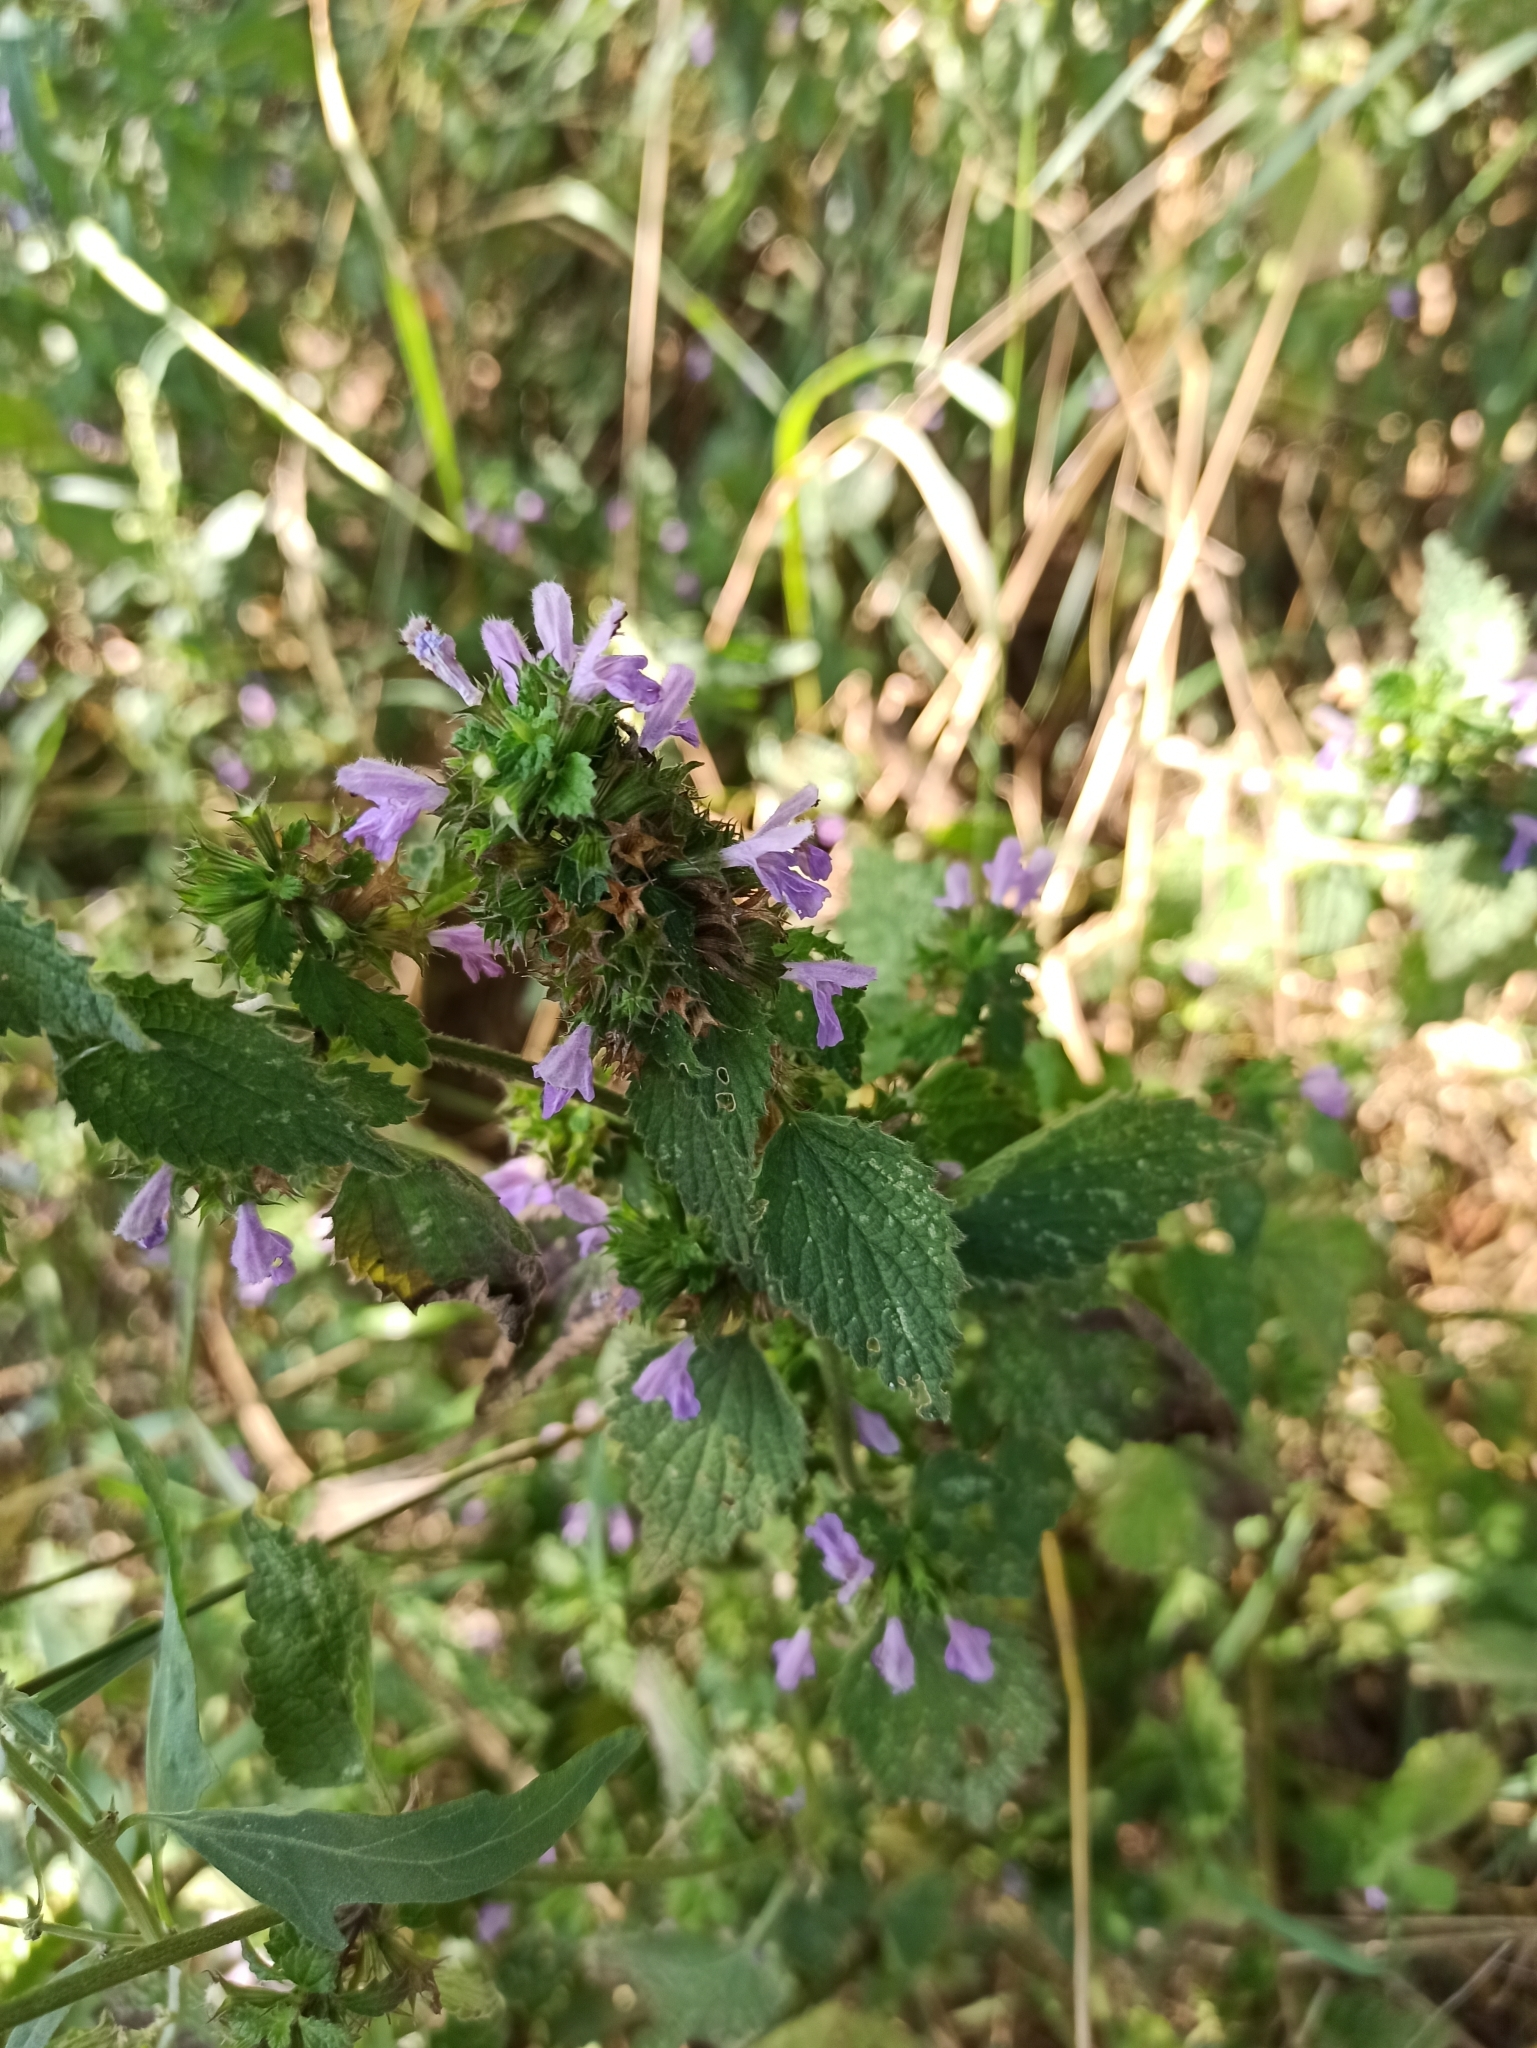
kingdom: Plantae
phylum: Tracheophyta
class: Magnoliopsida
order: Lamiales
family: Lamiaceae
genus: Ballota
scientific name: Ballota nigra
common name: Black horehound
